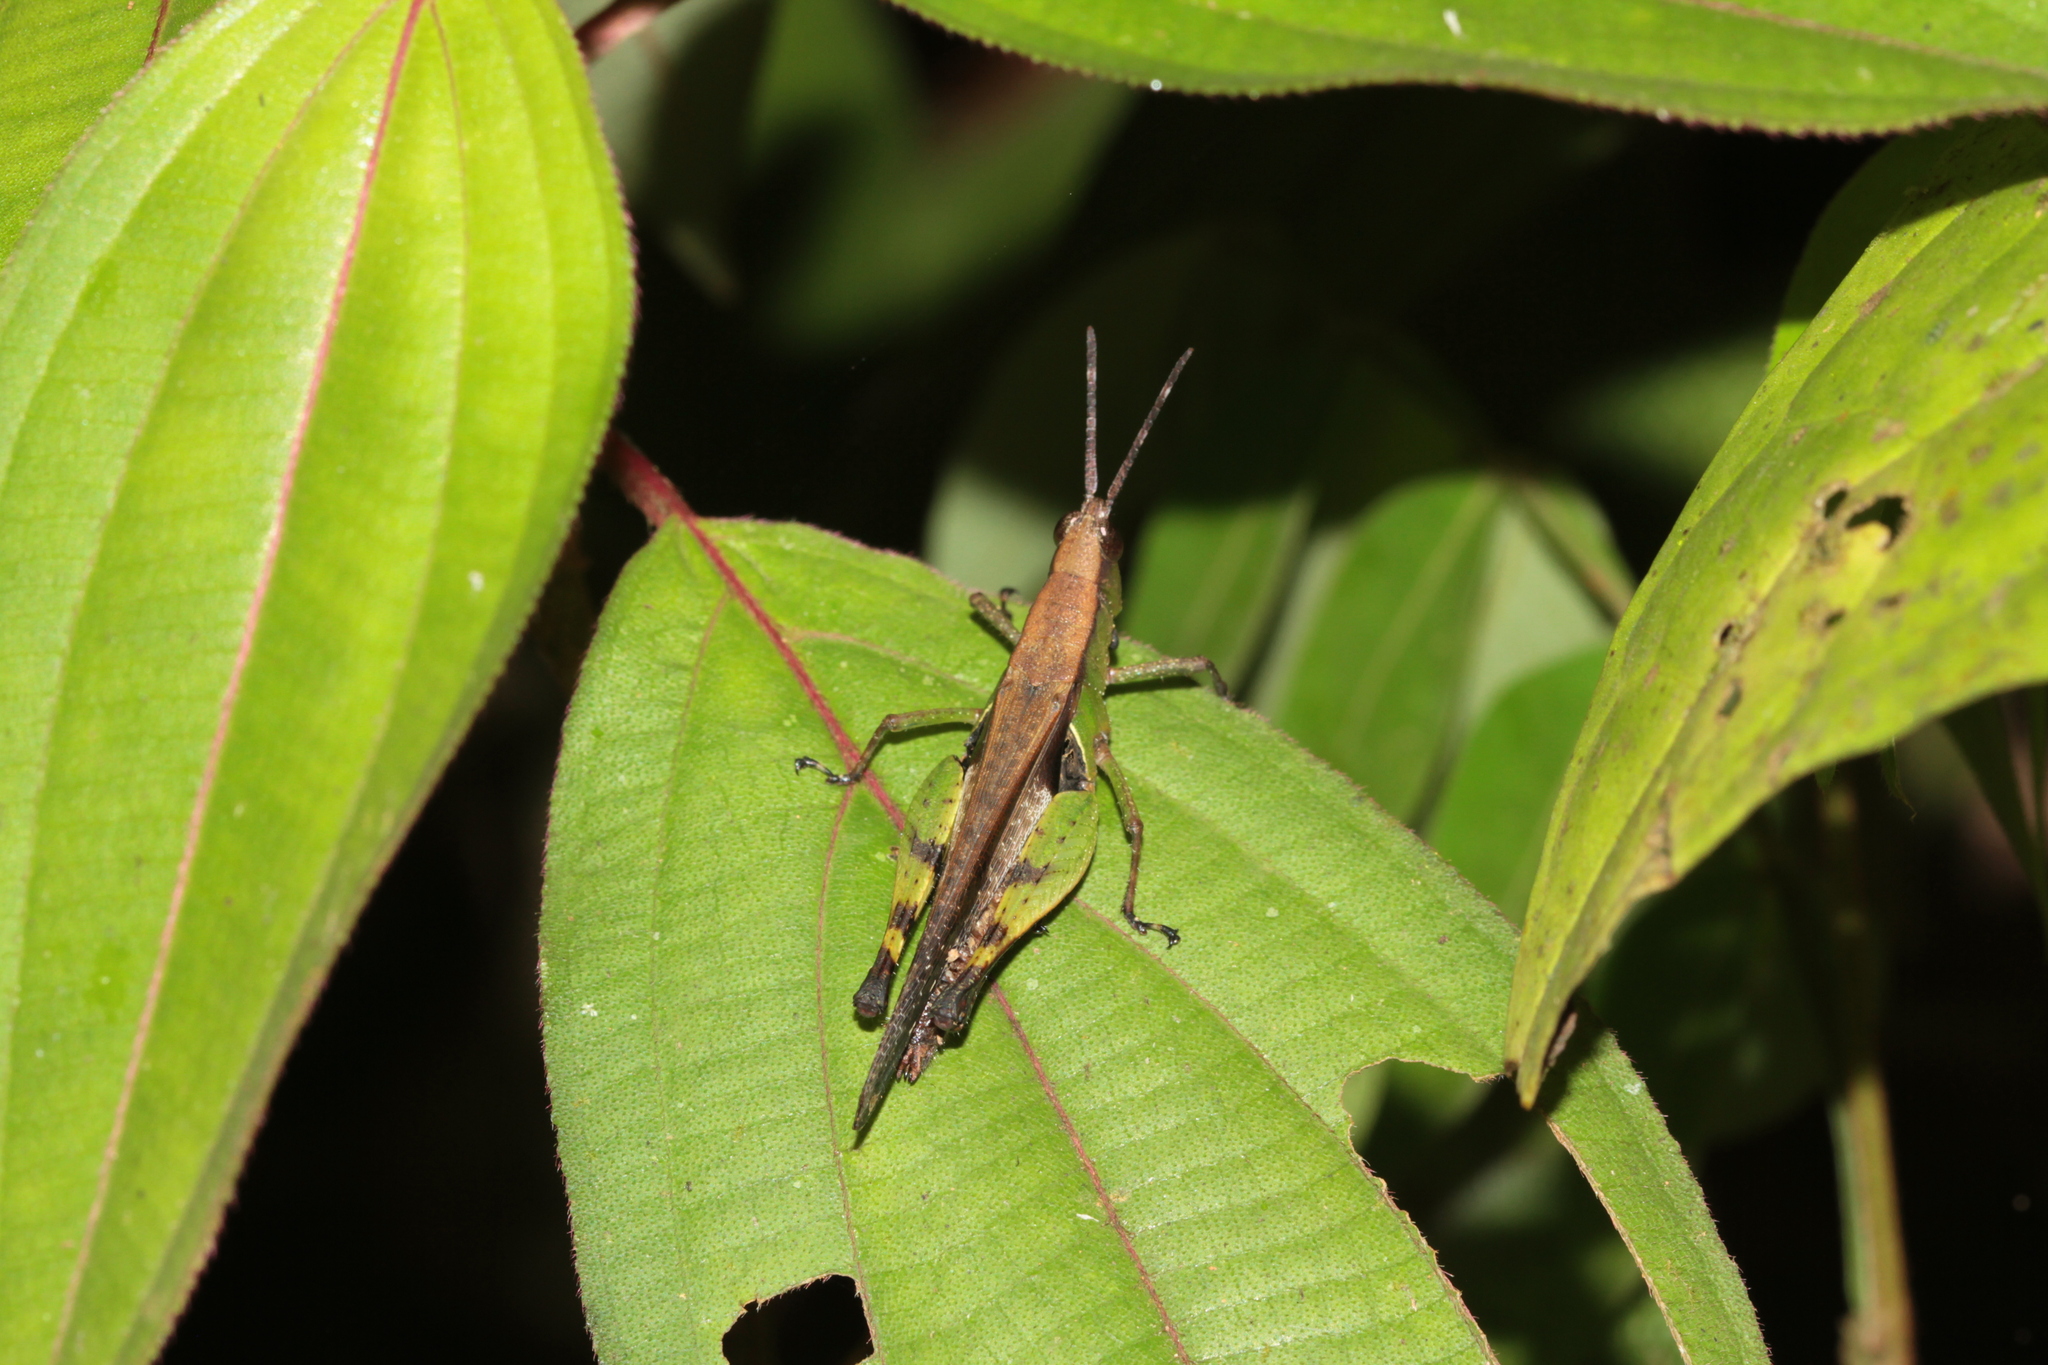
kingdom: Animalia
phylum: Arthropoda
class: Insecta
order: Orthoptera
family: Acrididae
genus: Xiphiola
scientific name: Xiphiola cyanoptera
